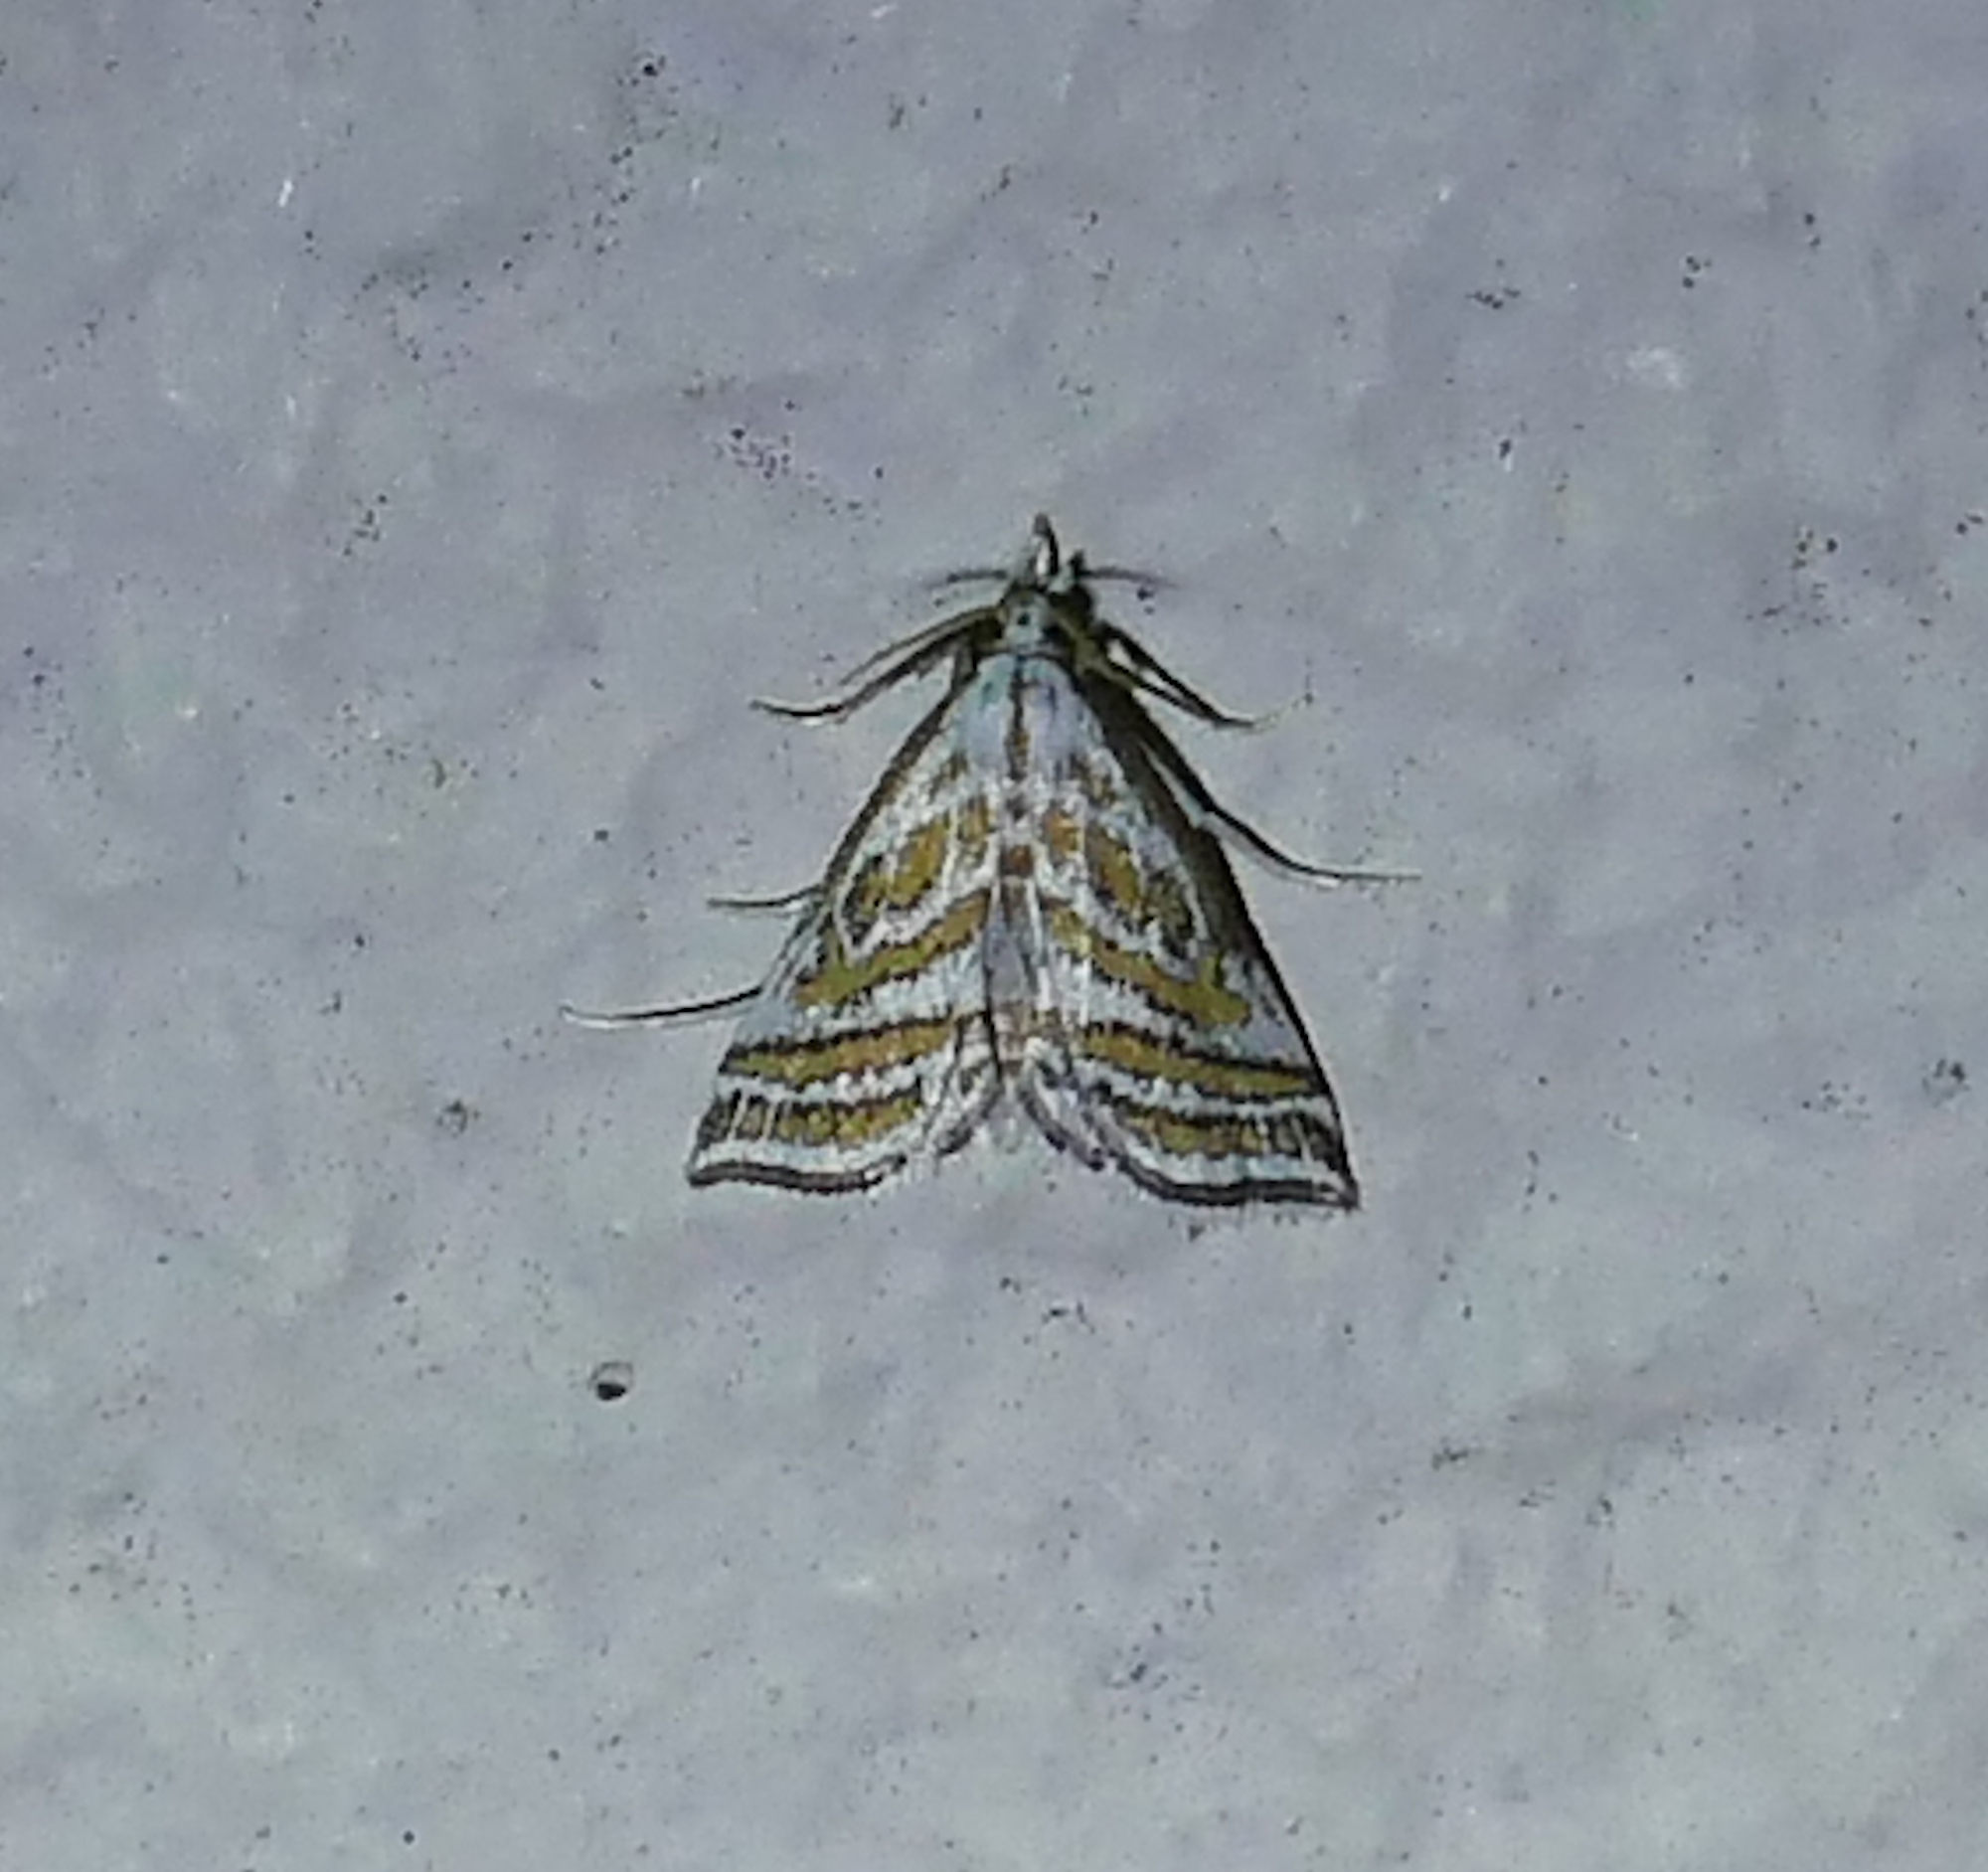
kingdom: Animalia
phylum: Arthropoda
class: Insecta
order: Lepidoptera
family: Crambidae
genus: Leptosteges
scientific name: Leptosteges
